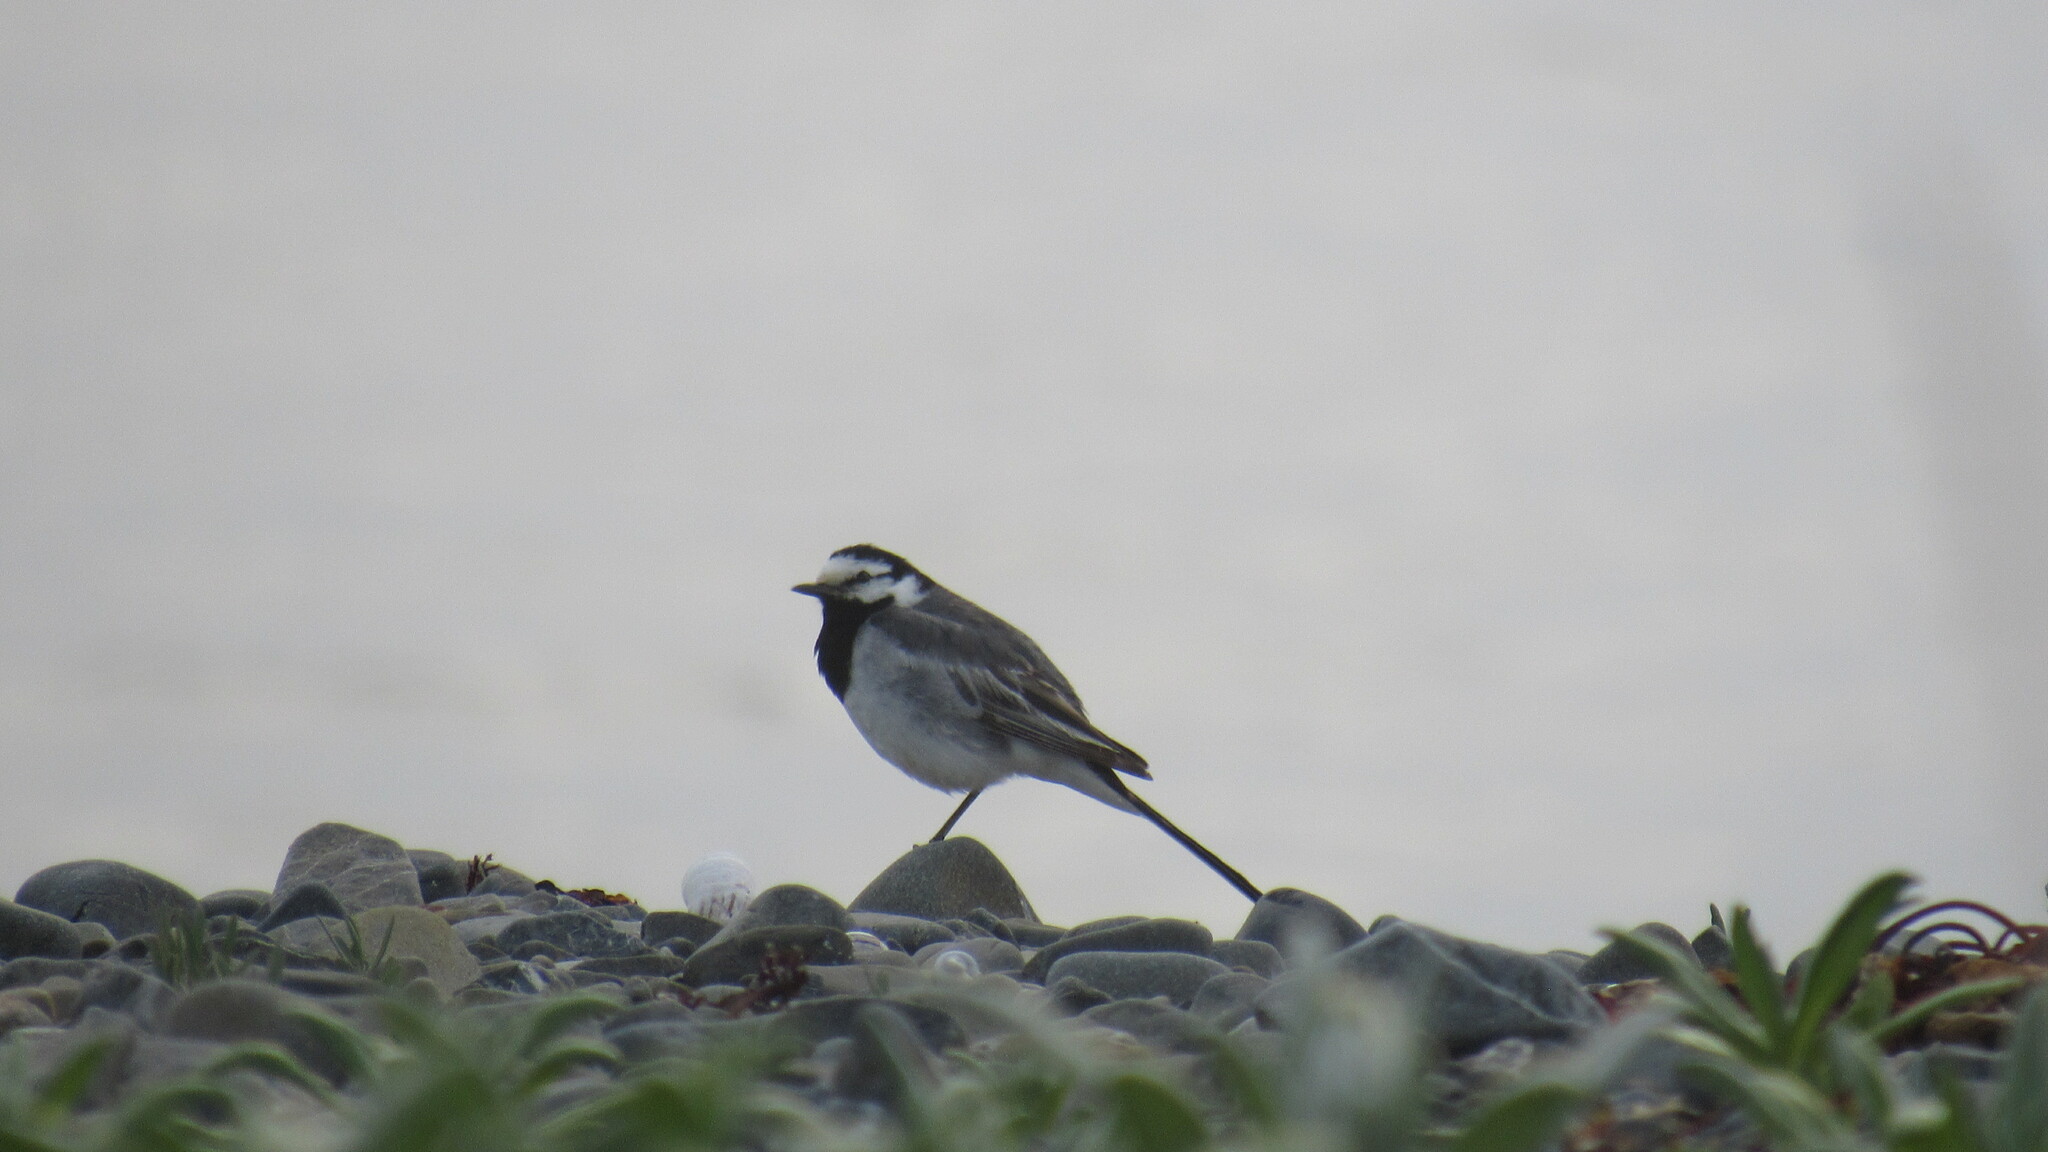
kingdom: Animalia
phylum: Chordata
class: Aves
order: Passeriformes
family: Motacillidae
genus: Motacilla
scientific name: Motacilla alba
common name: White wagtail
